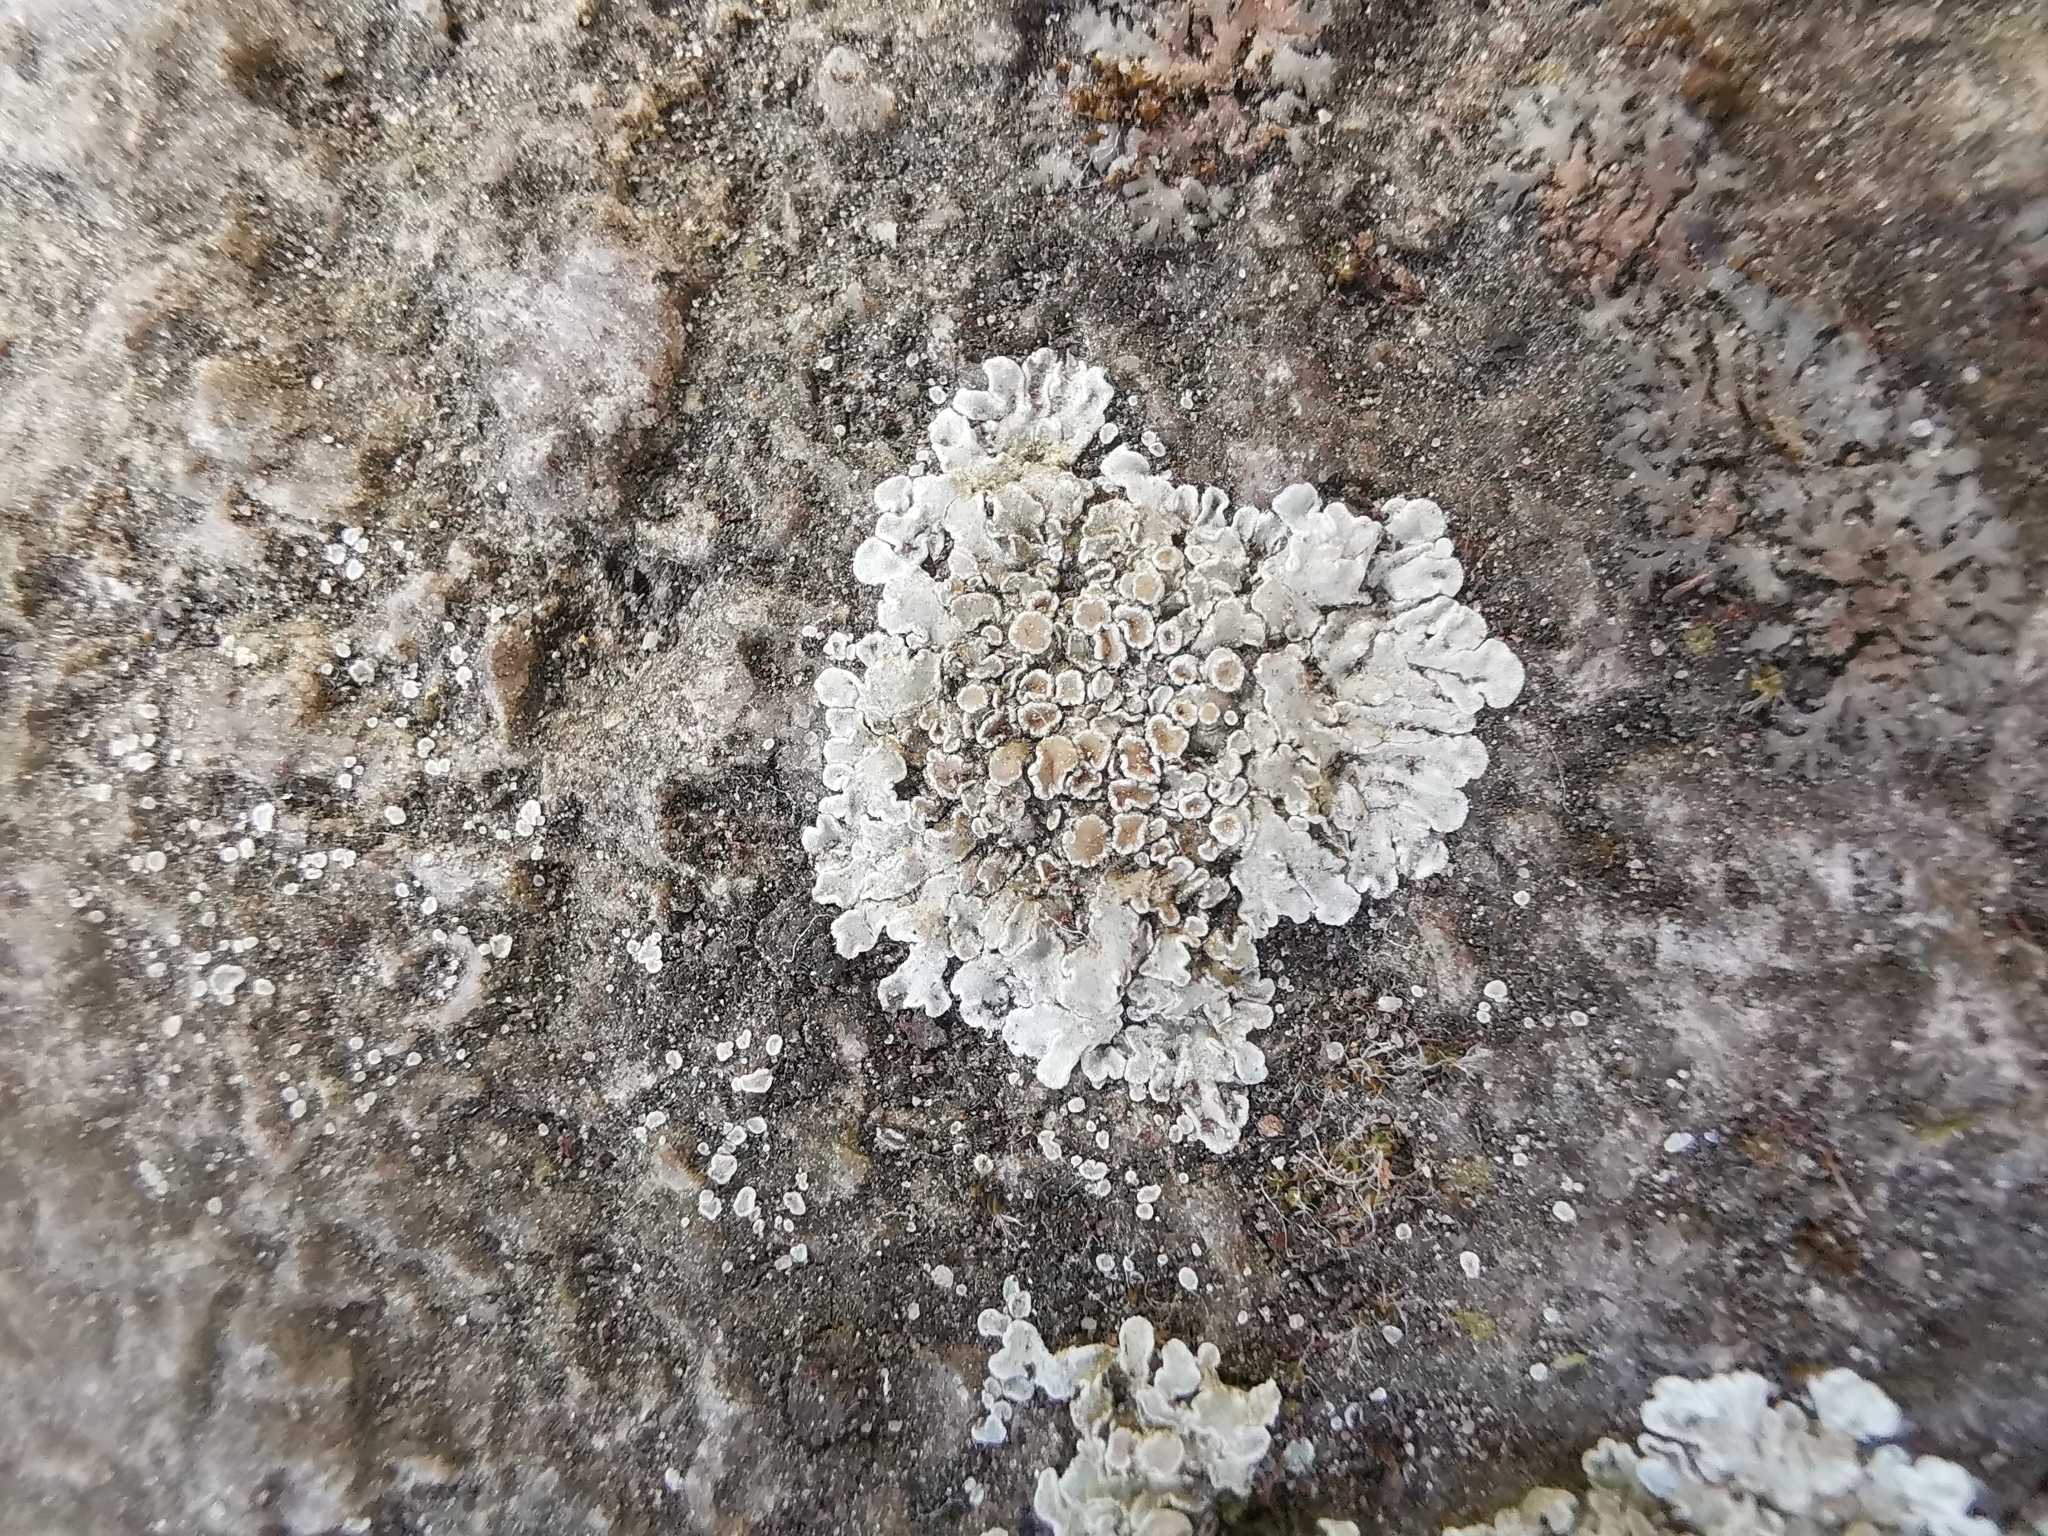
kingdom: Fungi
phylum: Ascomycota
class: Lecanoromycetes
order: Lecanorales
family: Lecanoraceae
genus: Protoparmeliopsis
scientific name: Protoparmeliopsis muralis
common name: Stonewall rim lichen
